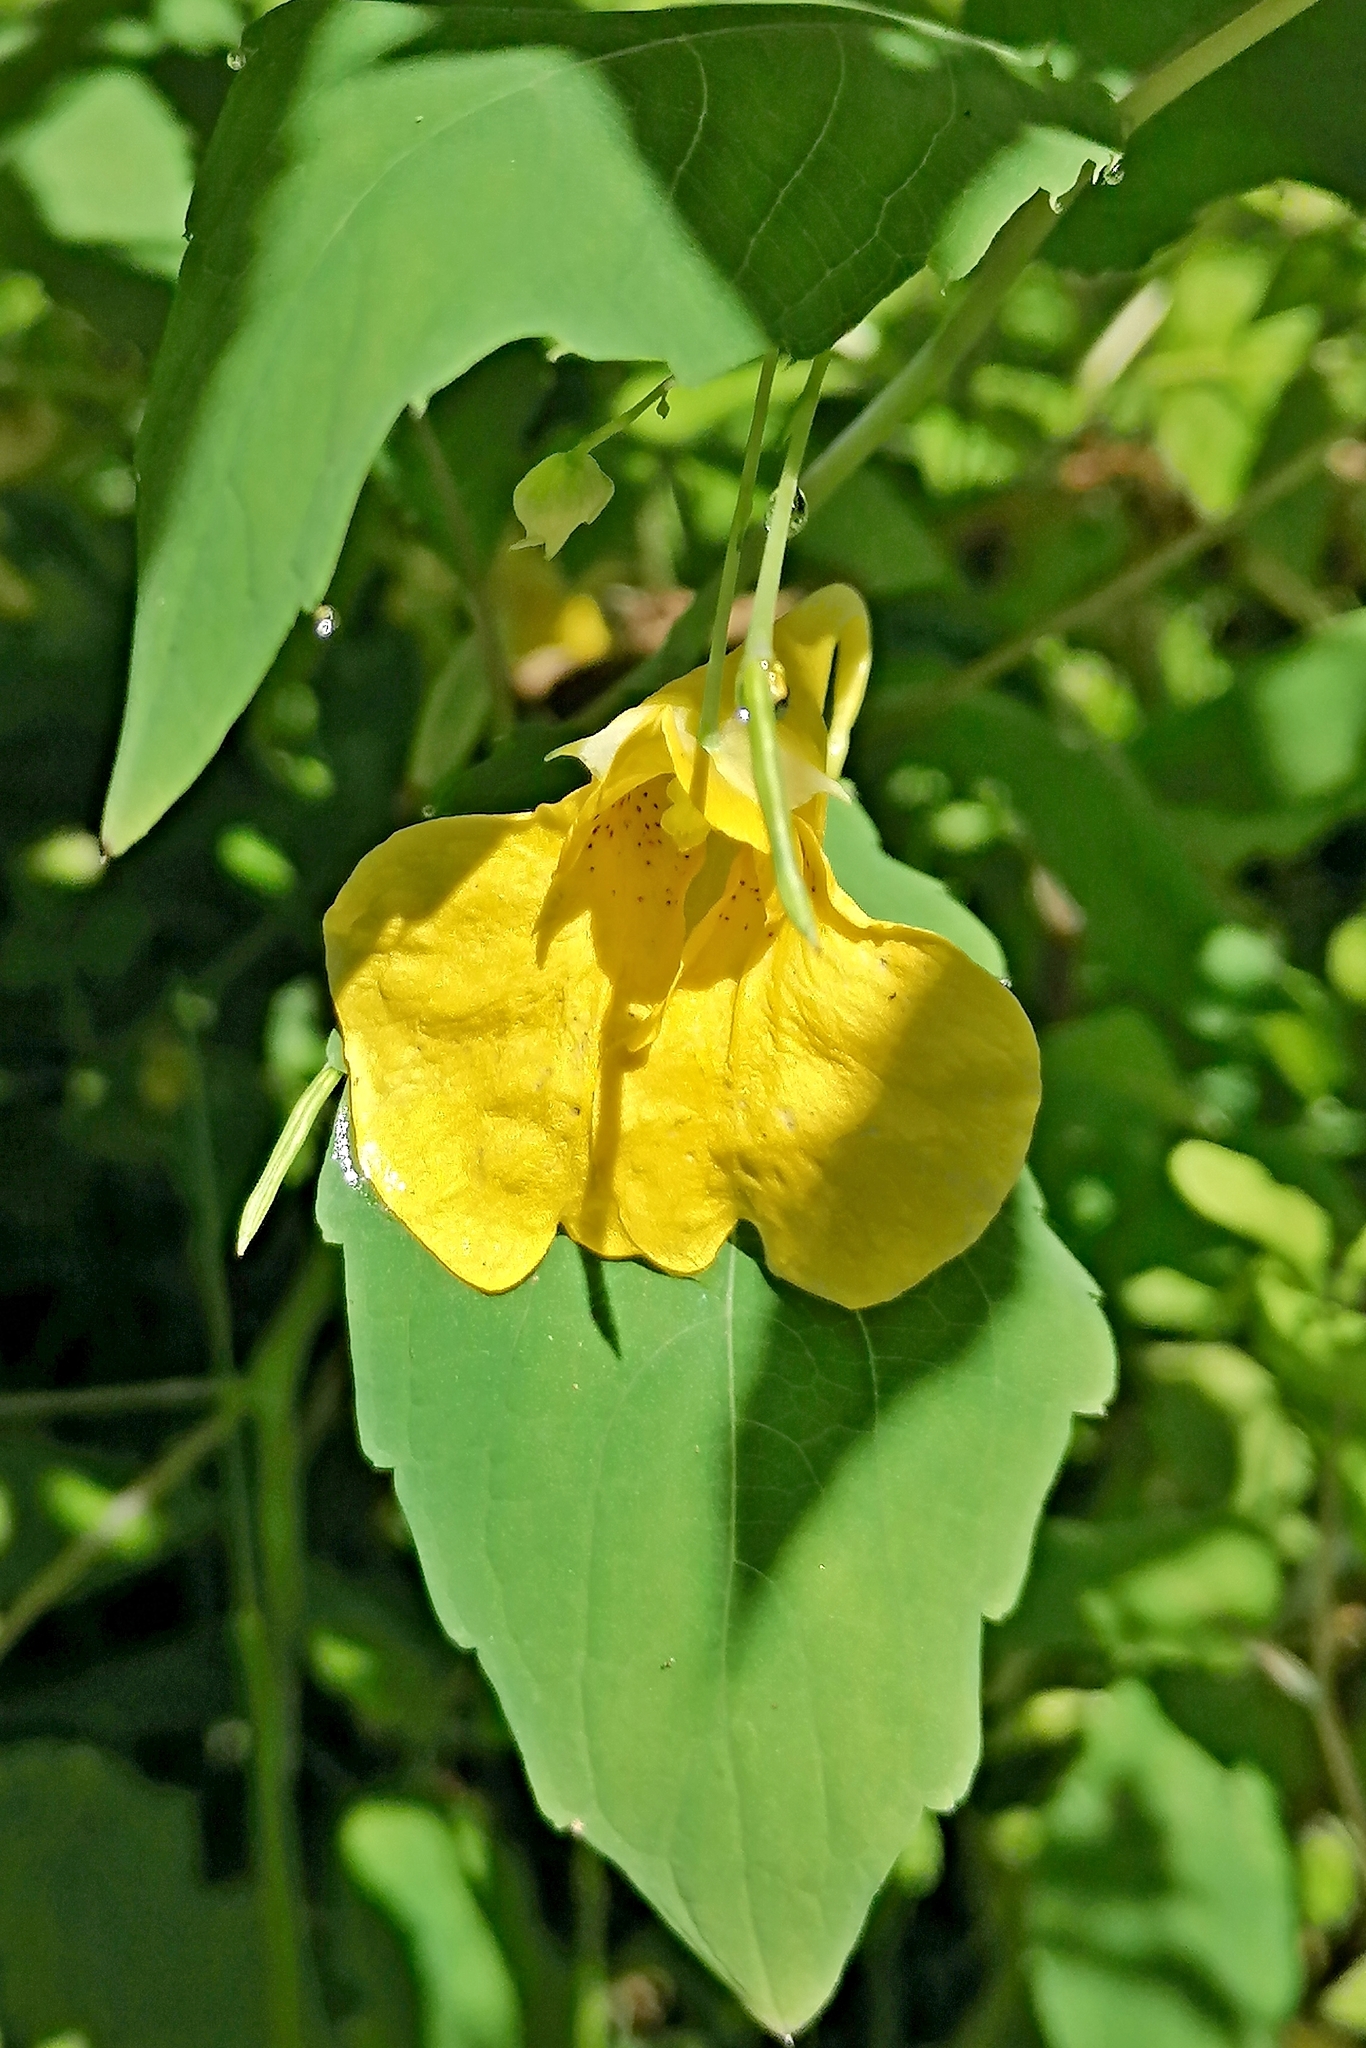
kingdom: Plantae
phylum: Tracheophyta
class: Magnoliopsida
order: Ericales
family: Balsaminaceae
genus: Impatiens
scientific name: Impatiens noli-tangere
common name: Touch-me-not balsam
